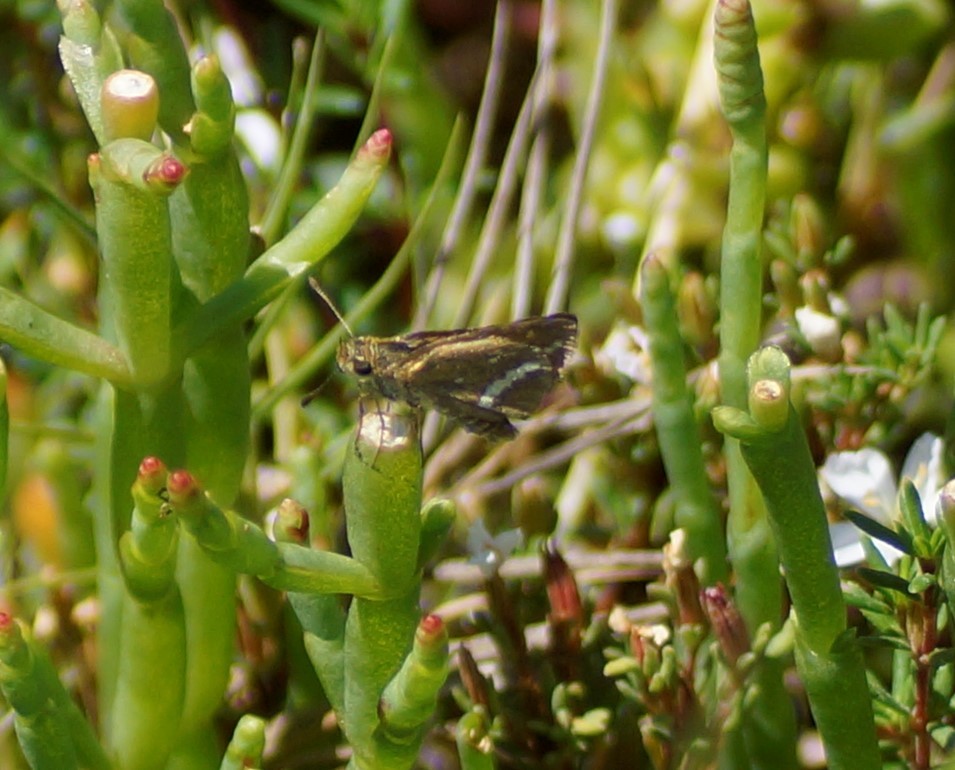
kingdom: Animalia
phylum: Arthropoda
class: Insecta
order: Lepidoptera
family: Hesperiidae
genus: Taractrocera
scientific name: Taractrocera papyria
